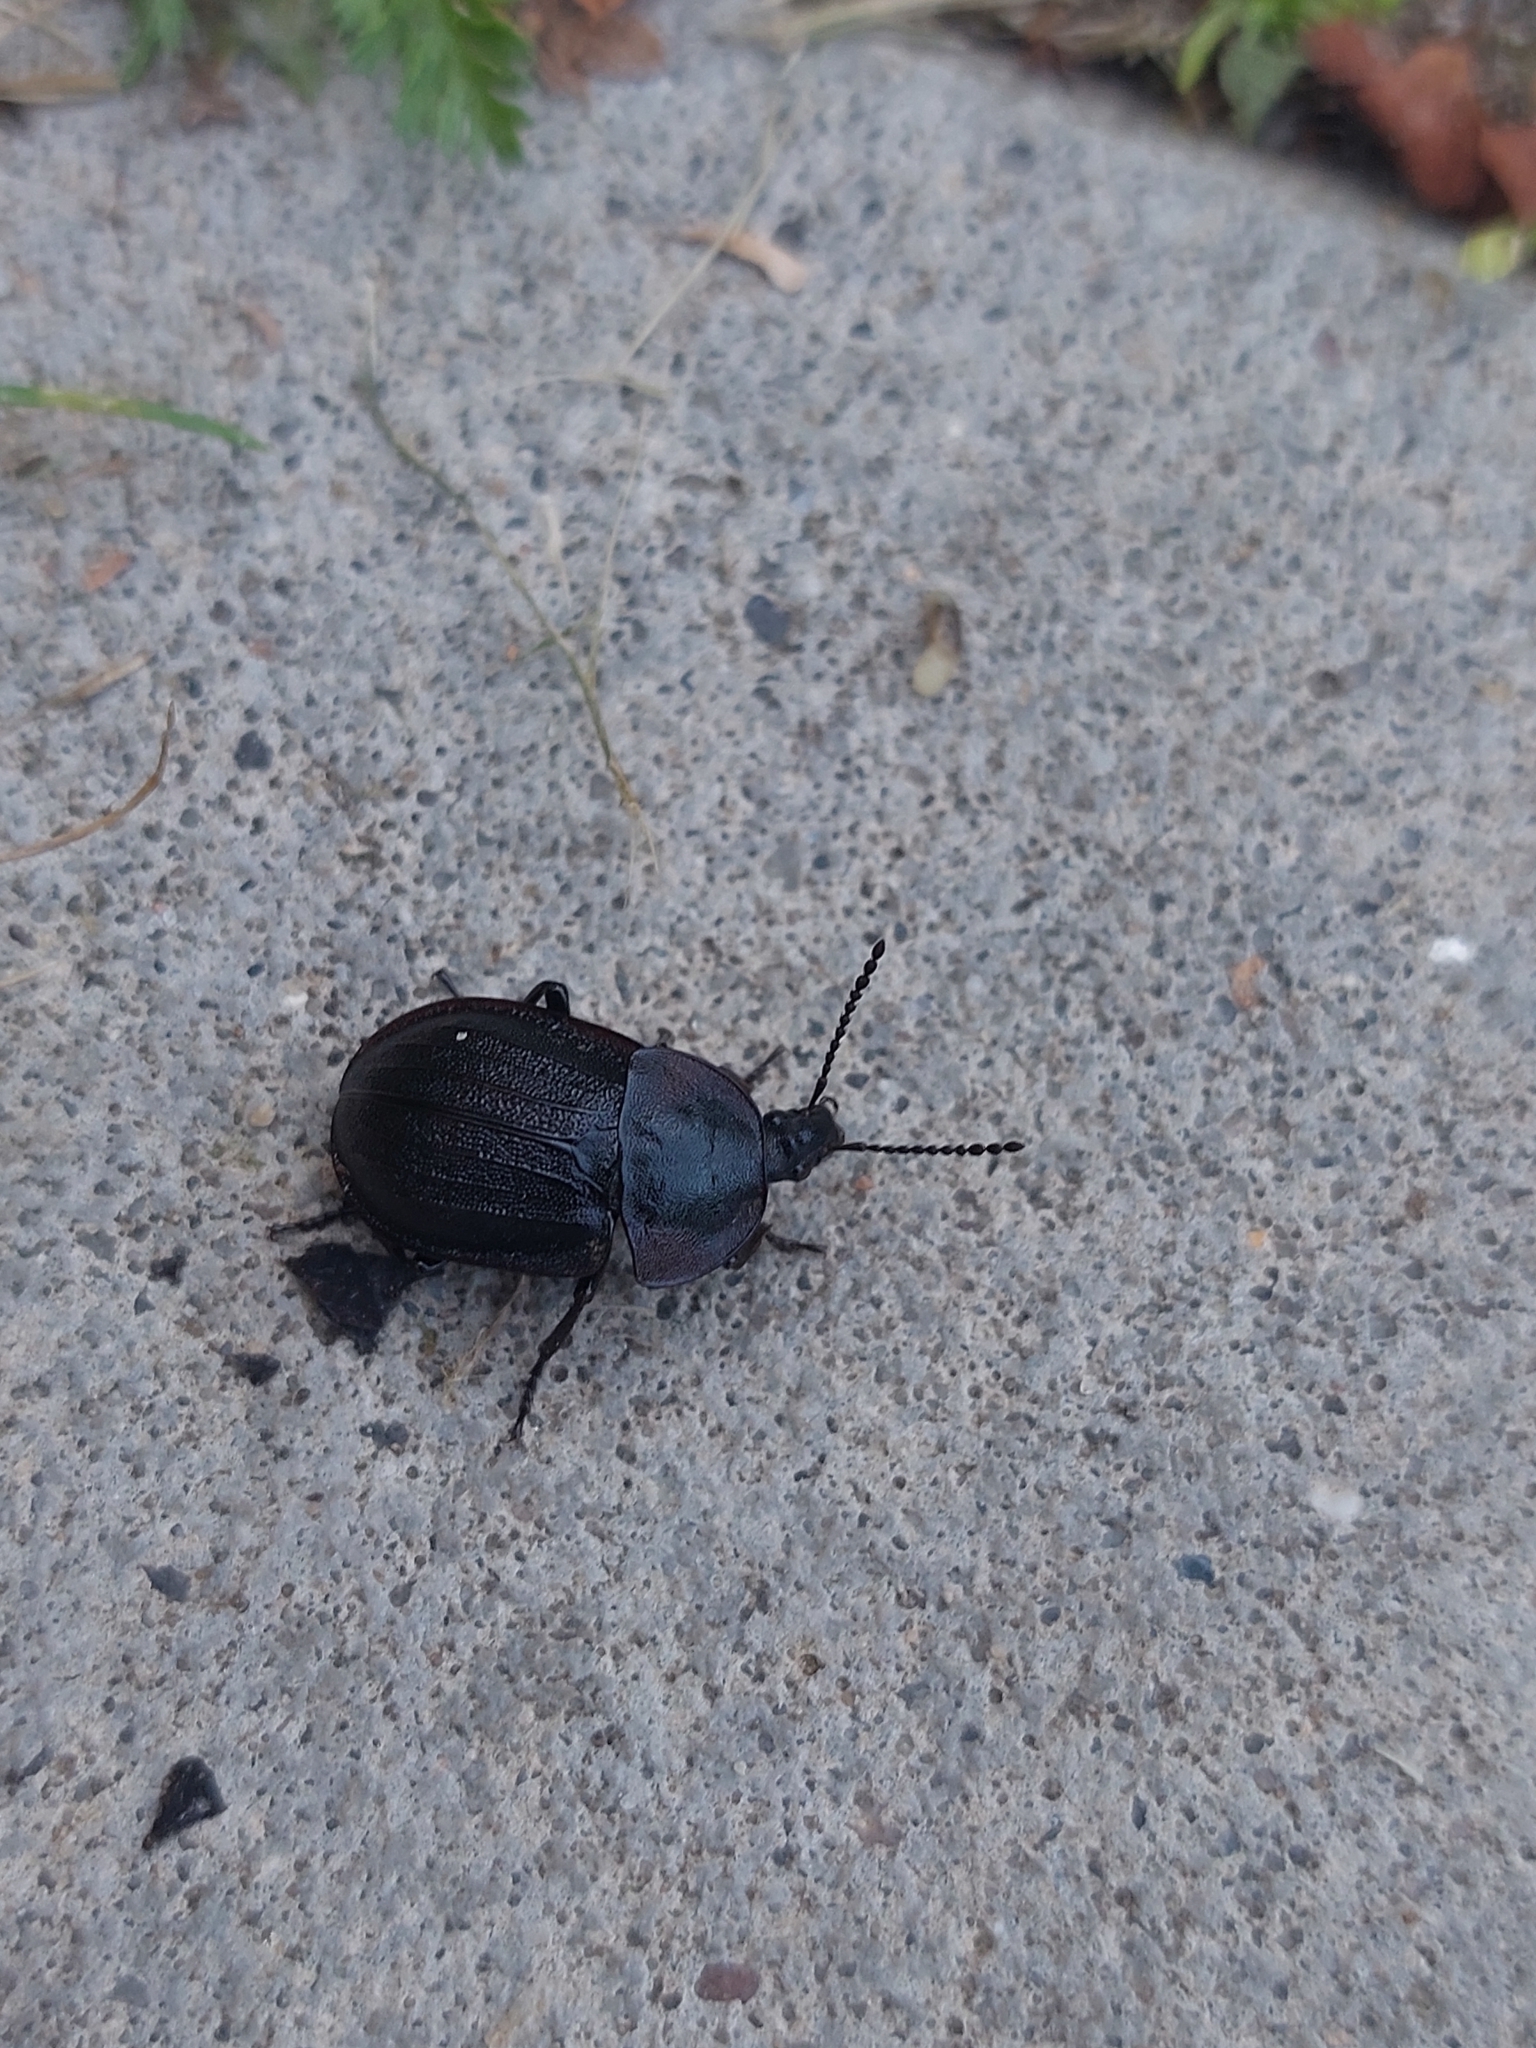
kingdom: Animalia
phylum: Arthropoda
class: Insecta
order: Coleoptera
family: Staphylinidae
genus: Silpha
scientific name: Silpha atrata
